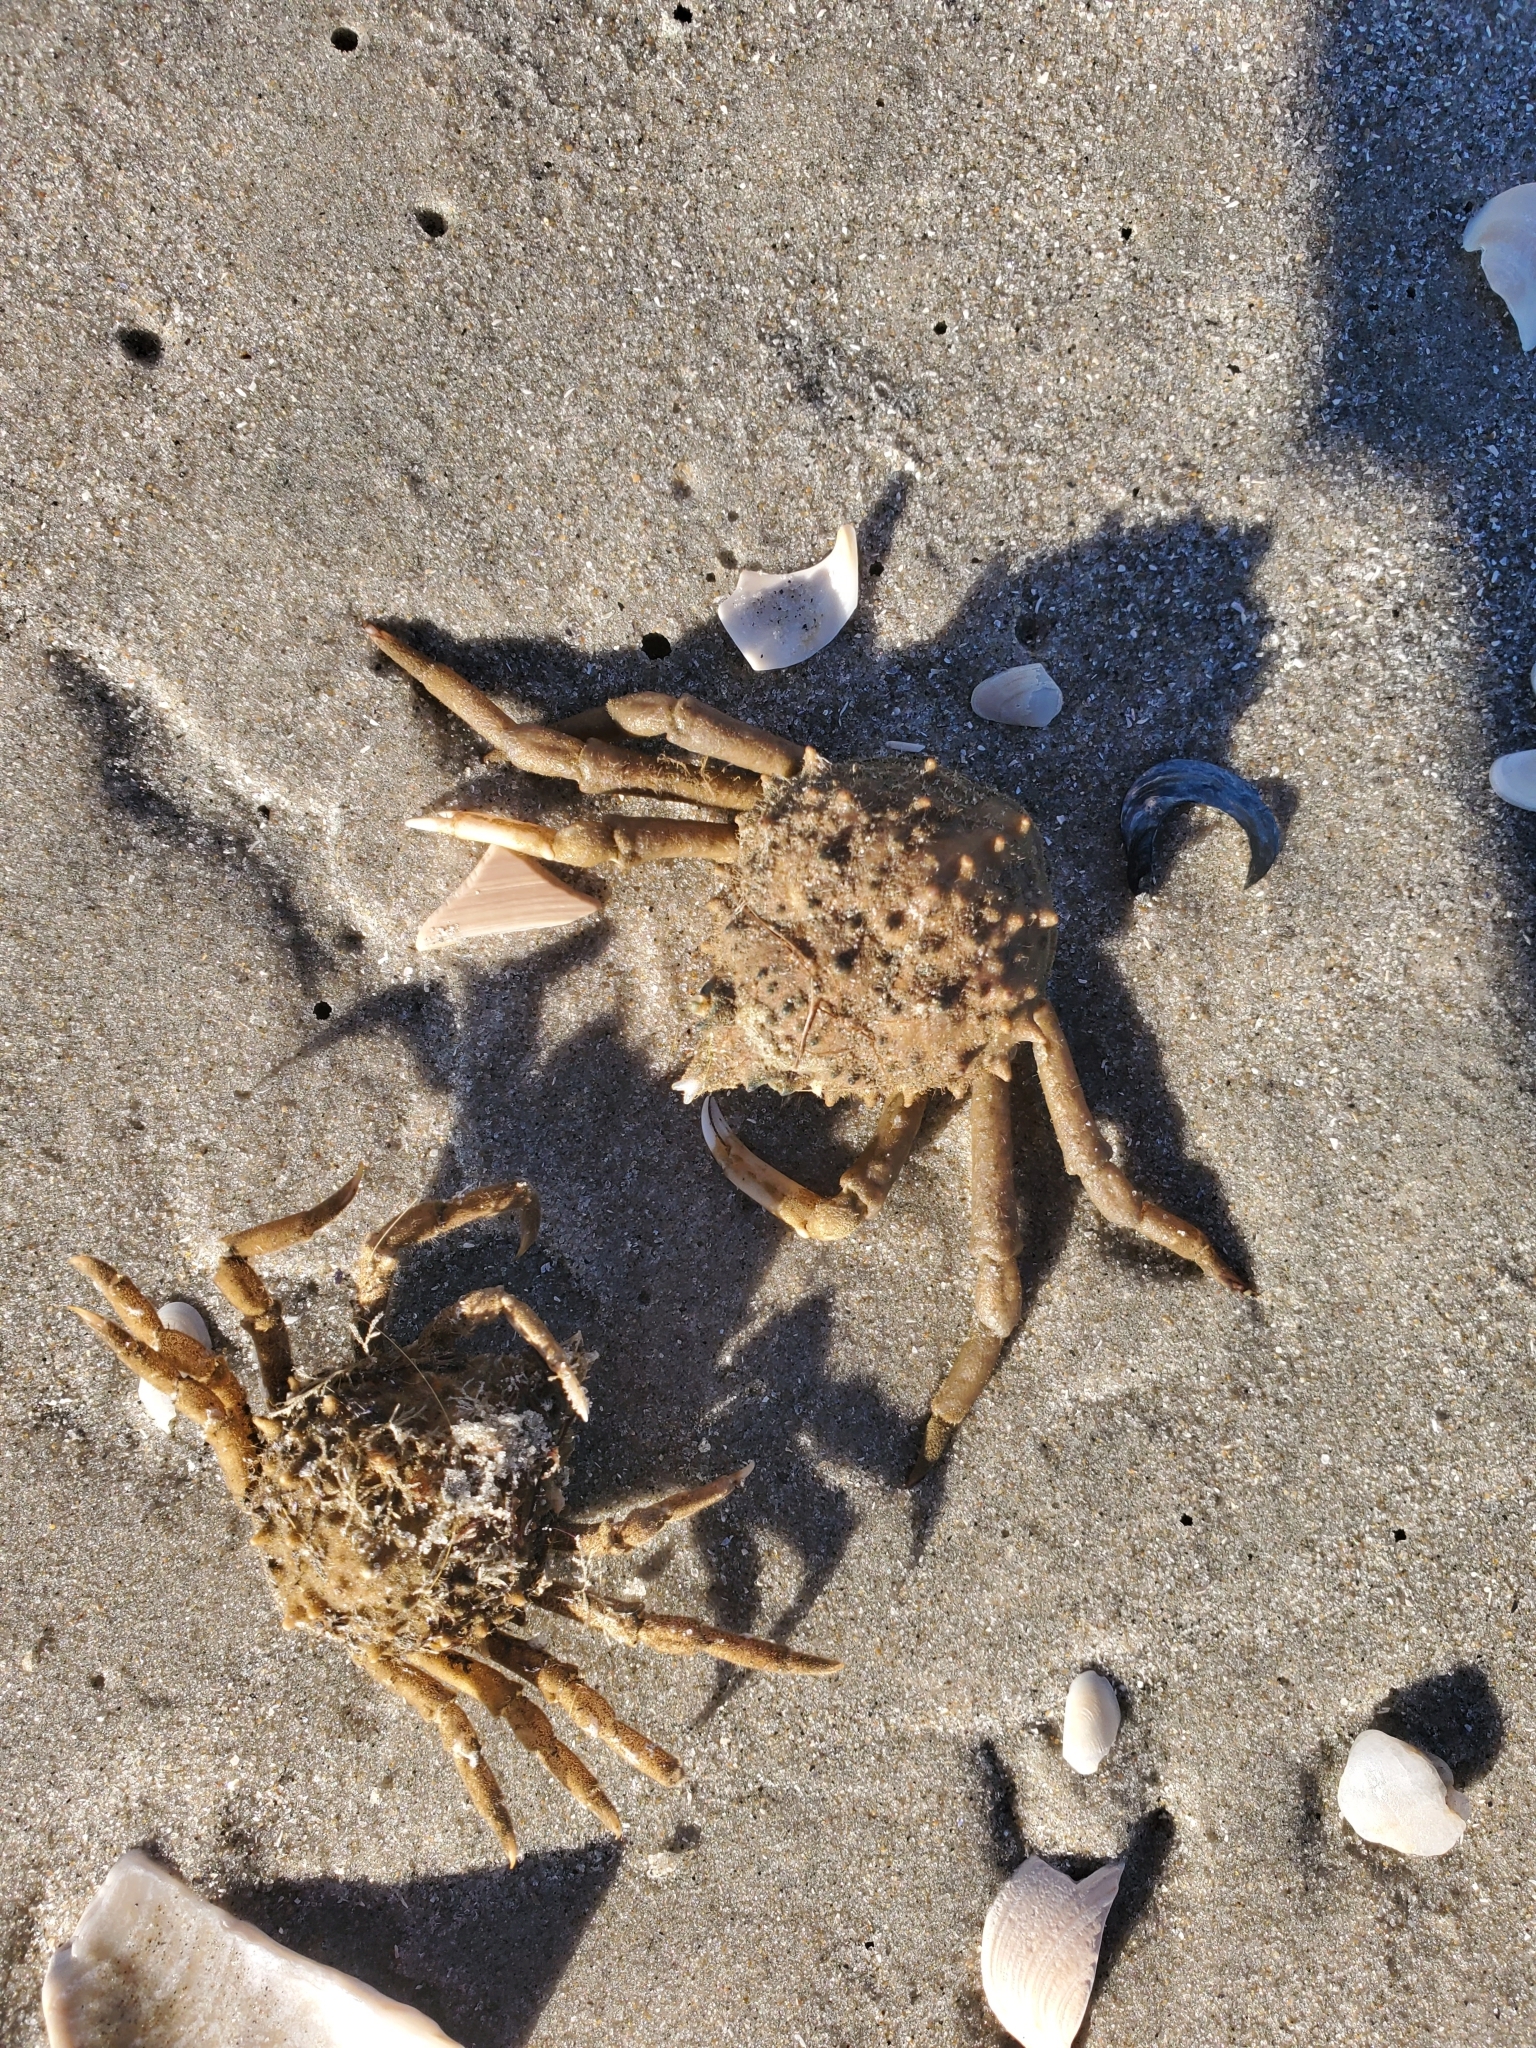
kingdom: Animalia
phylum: Arthropoda
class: Malacostraca
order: Decapoda
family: Epialtidae
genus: Libinia
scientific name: Libinia emarginata
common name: Common spider crab
